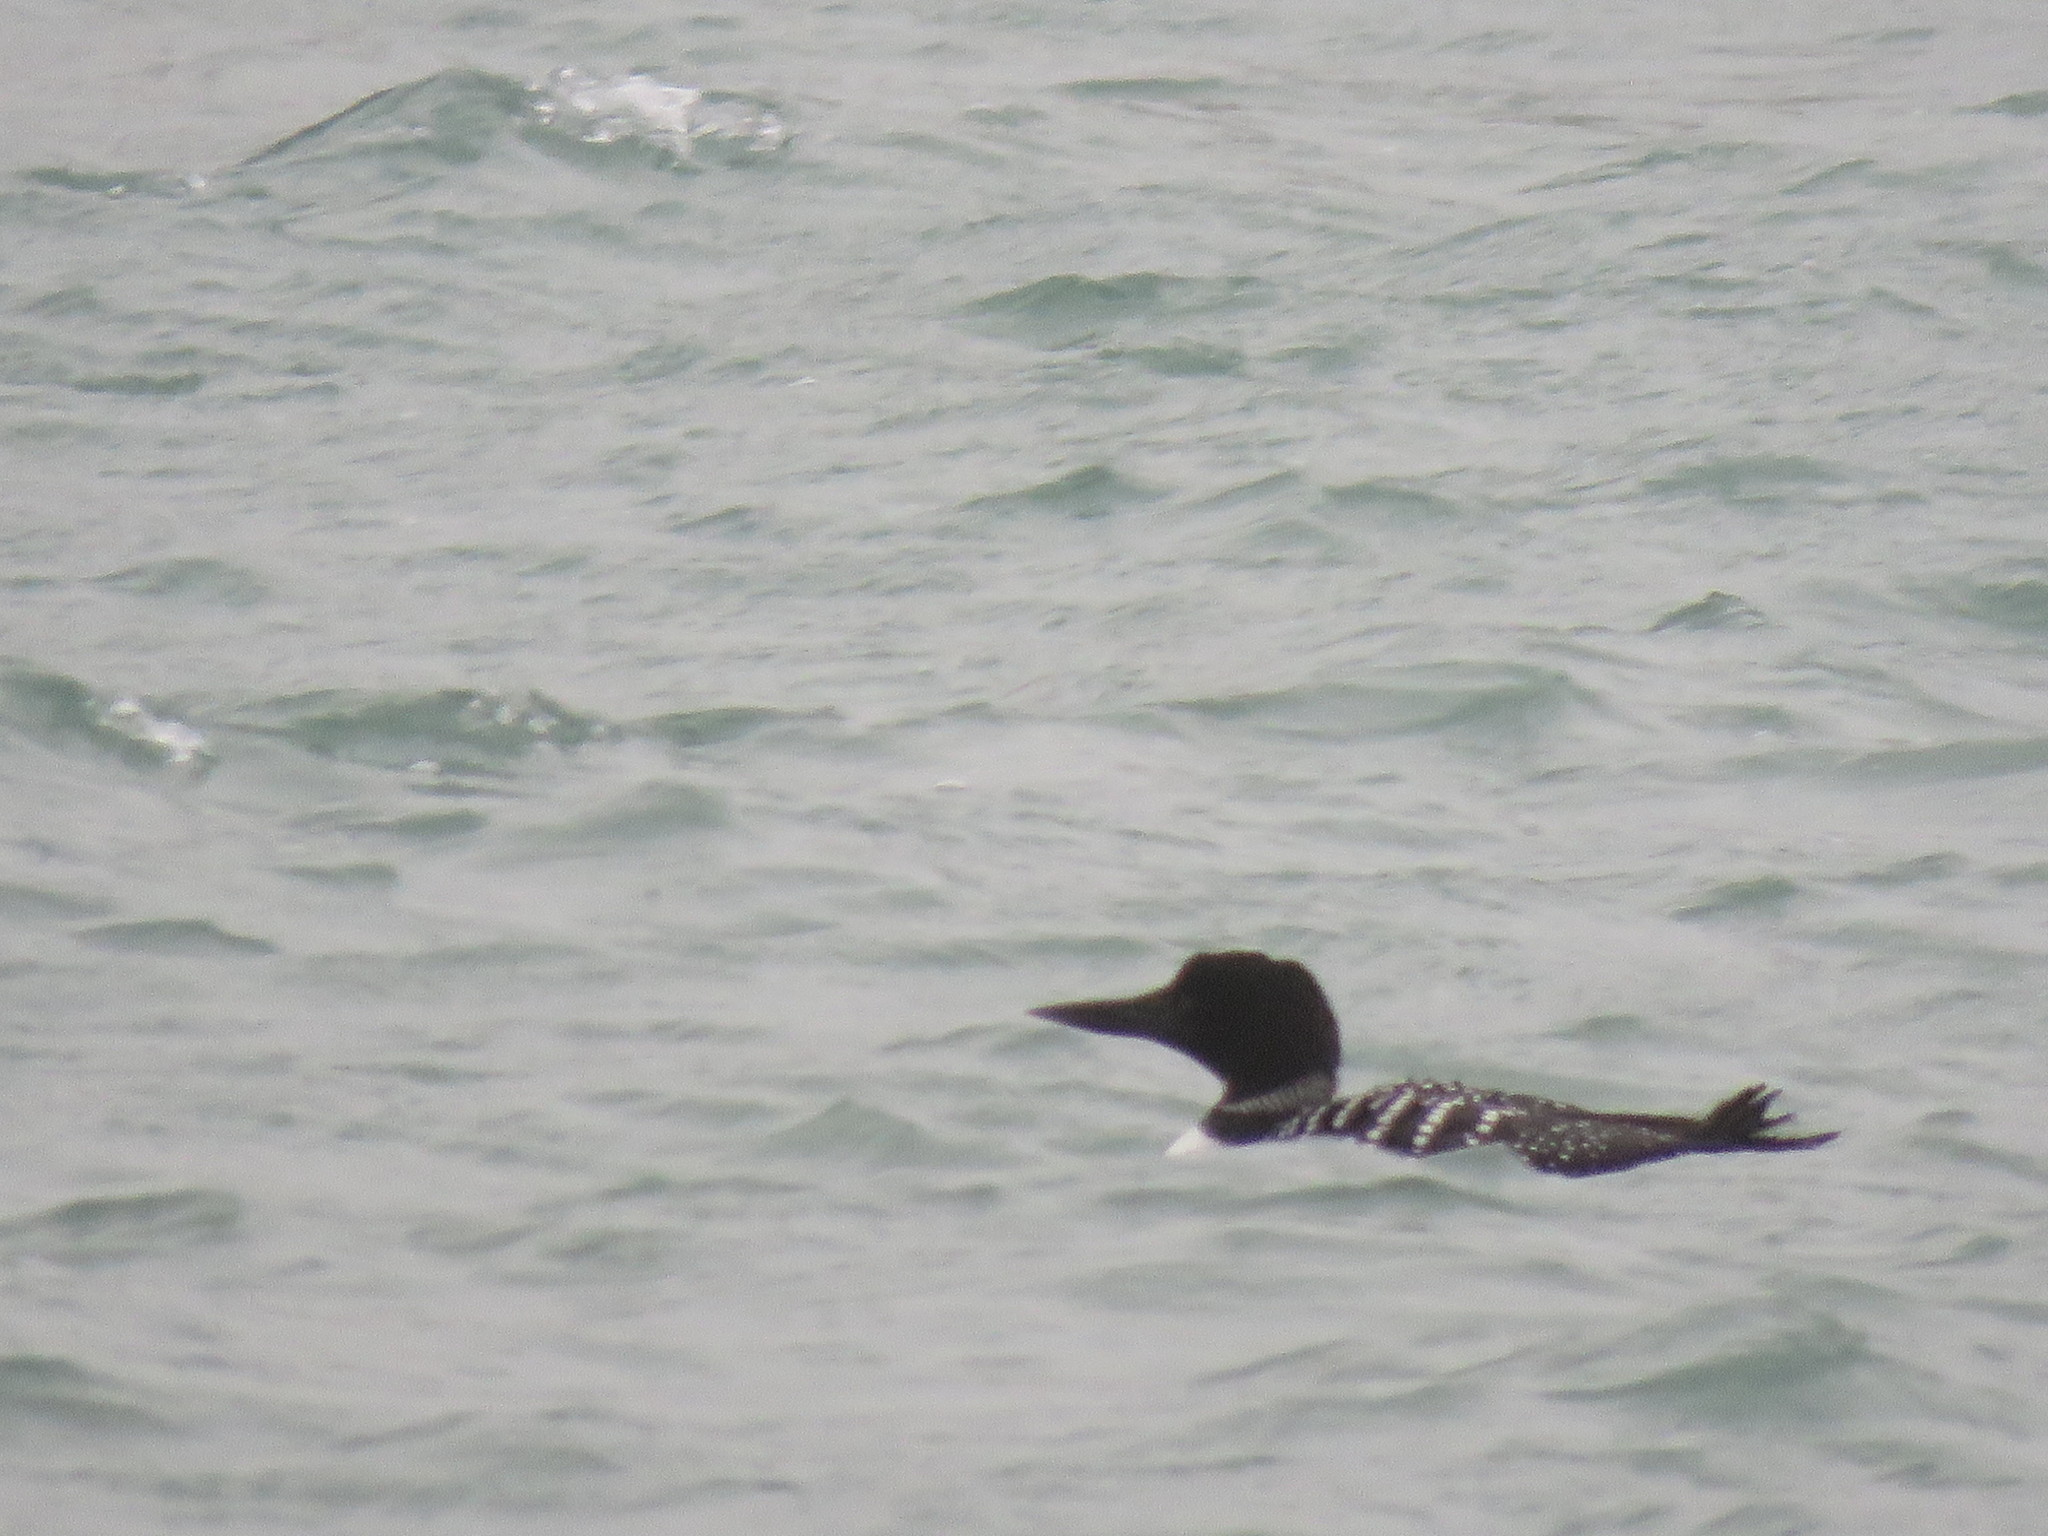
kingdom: Animalia
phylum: Chordata
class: Aves
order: Gaviiformes
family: Gaviidae
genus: Gavia
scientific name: Gavia immer
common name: Common loon
